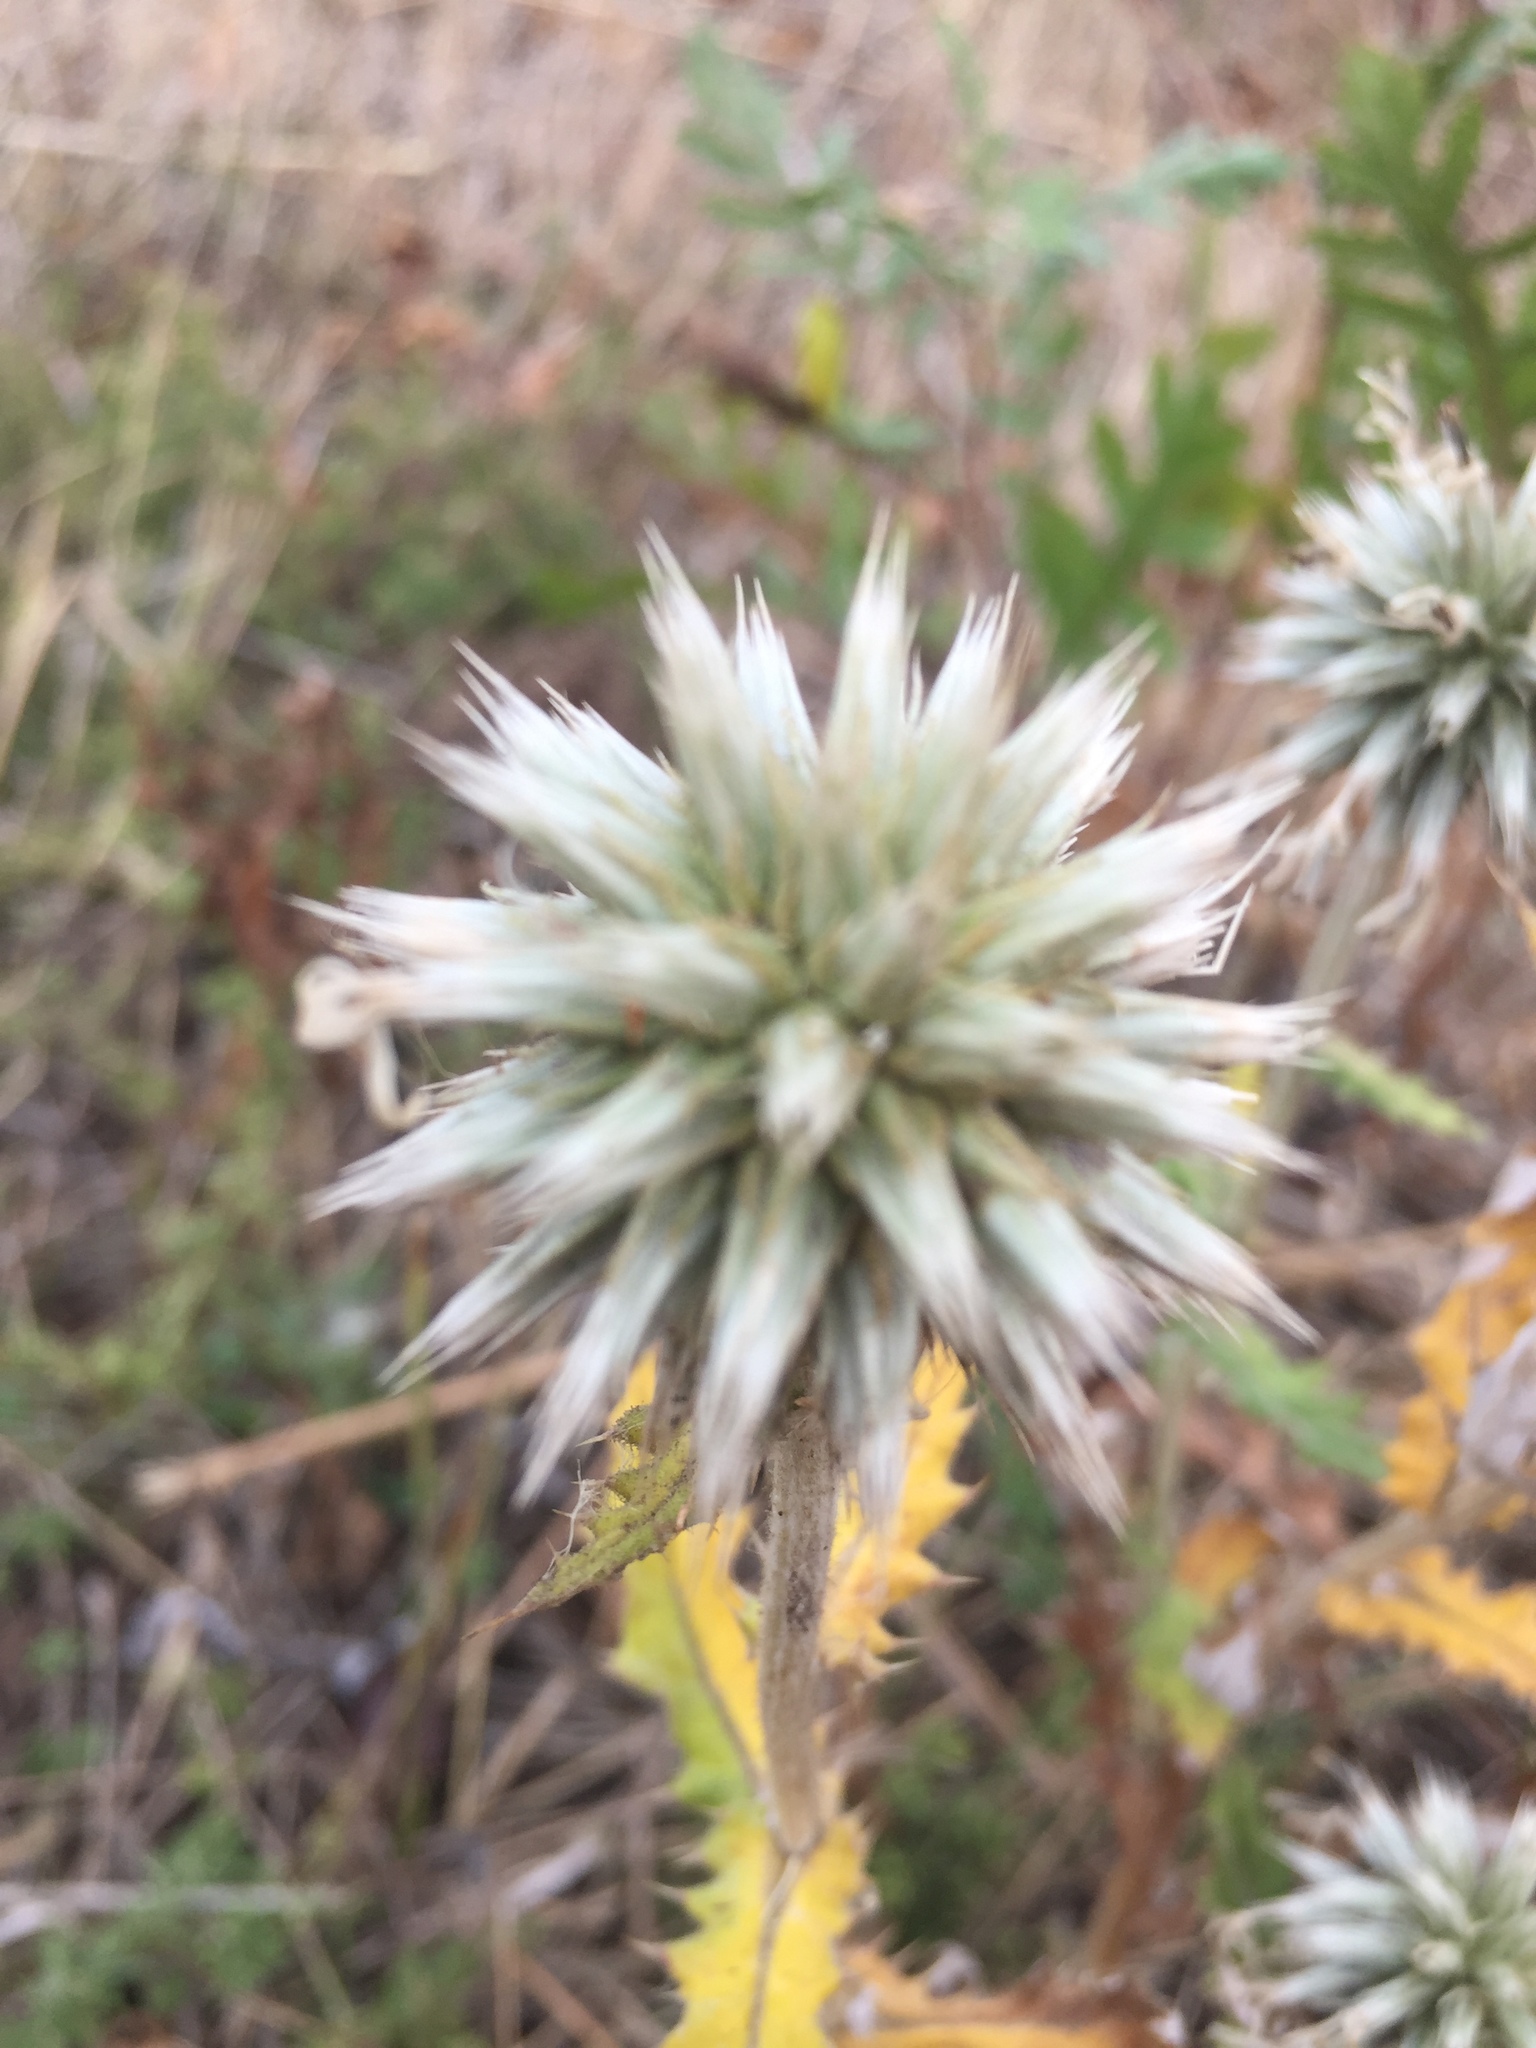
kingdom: Plantae
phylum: Tracheophyta
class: Magnoliopsida
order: Asterales
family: Asteraceae
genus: Echinops
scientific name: Echinops sphaerocephalus
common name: Glandular globe-thistle
